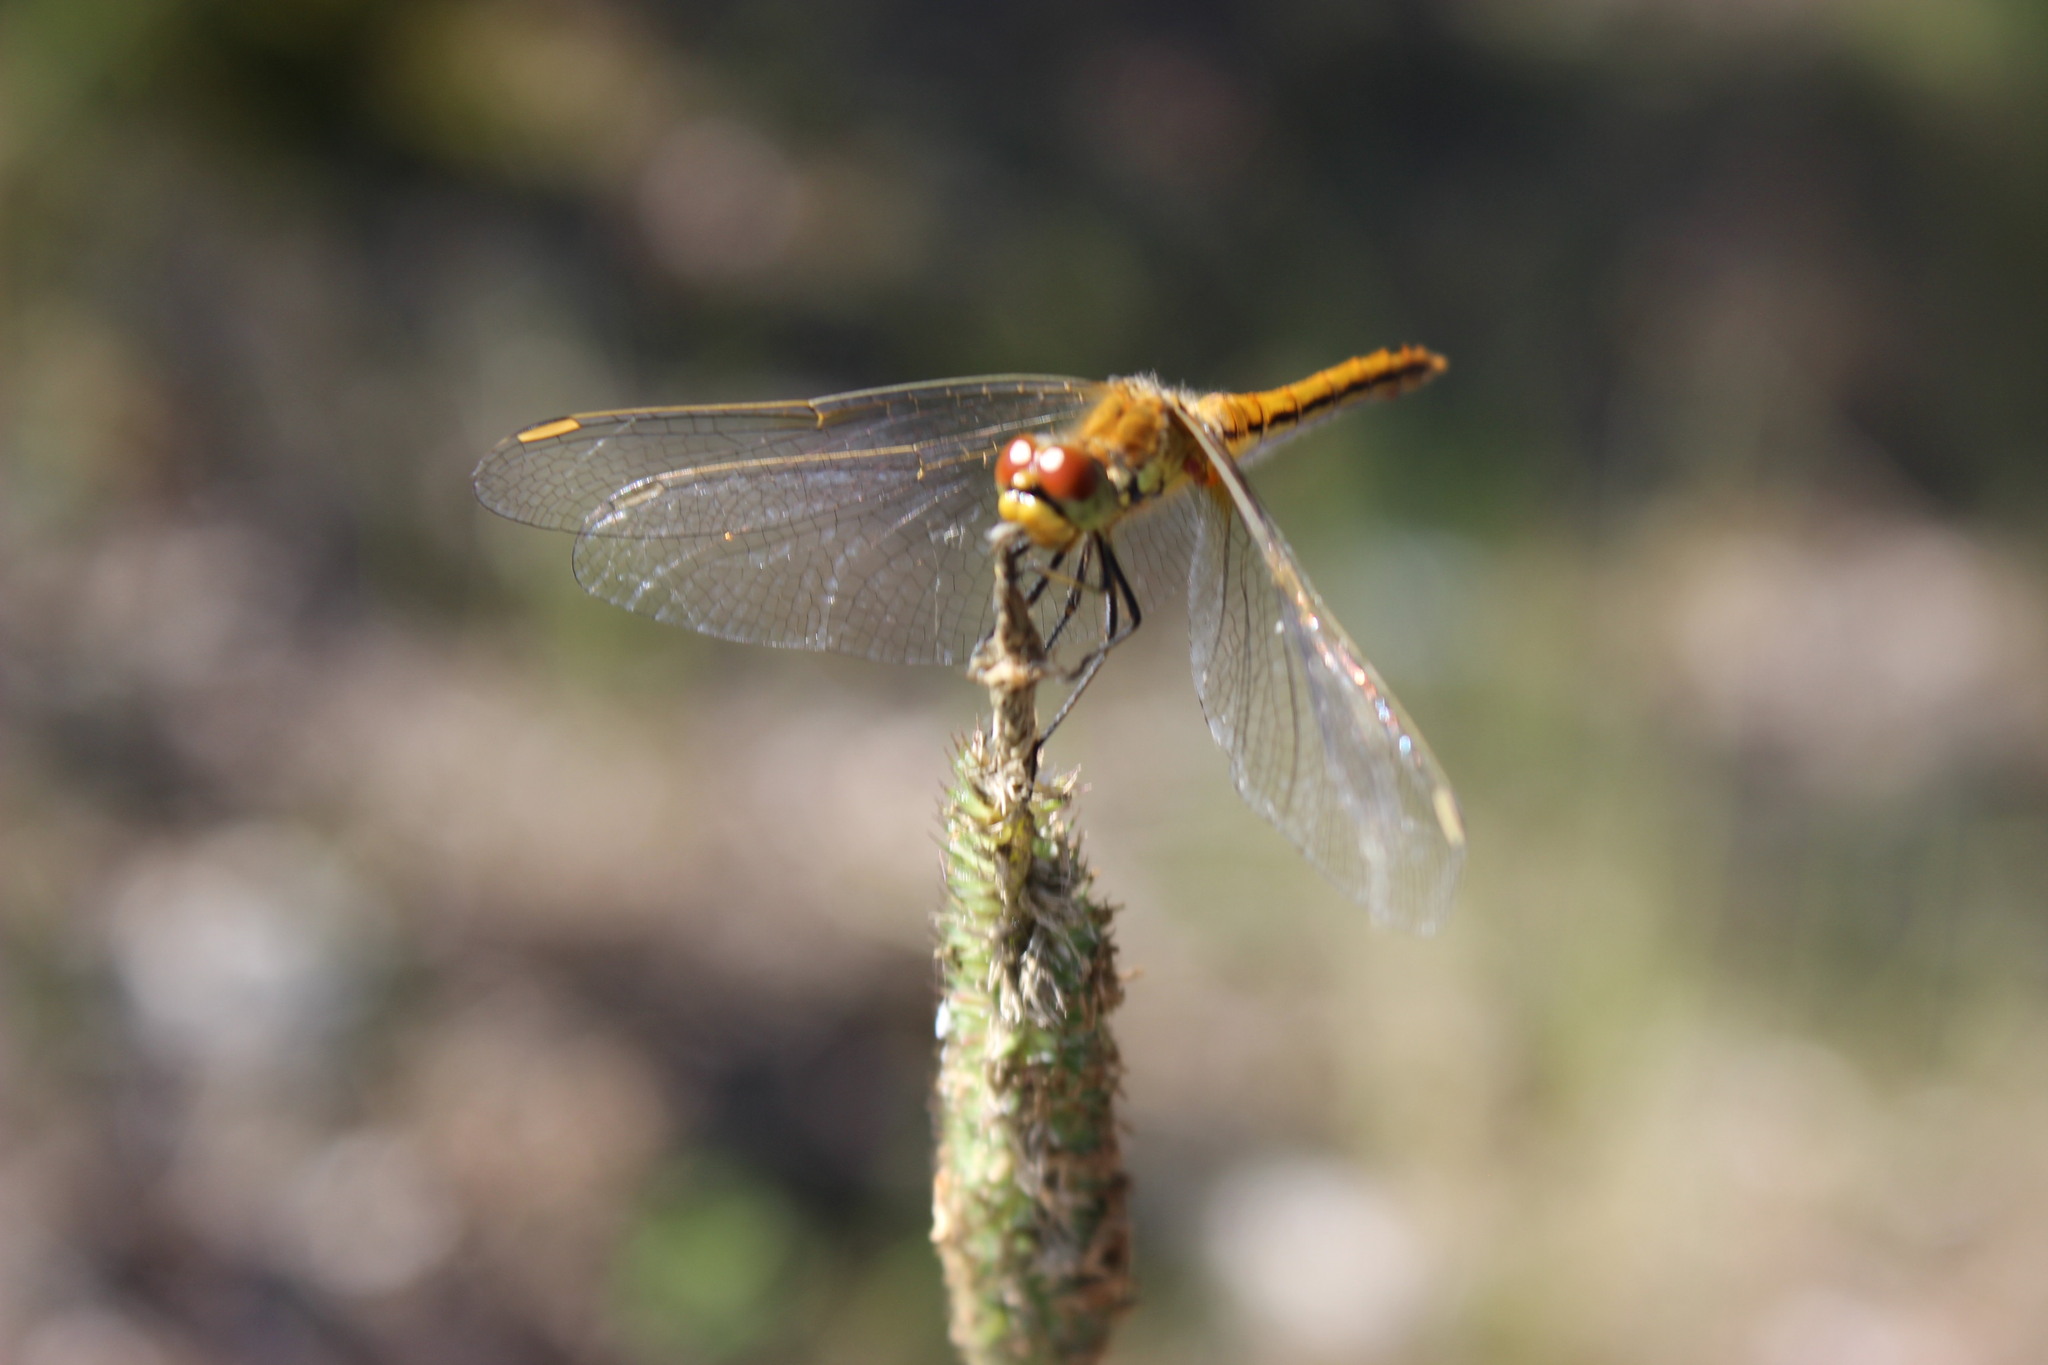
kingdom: Animalia
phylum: Arthropoda
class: Insecta
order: Odonata
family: Libellulidae
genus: Sympetrum
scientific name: Sympetrum flaveolum
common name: Yellow-winged darter
